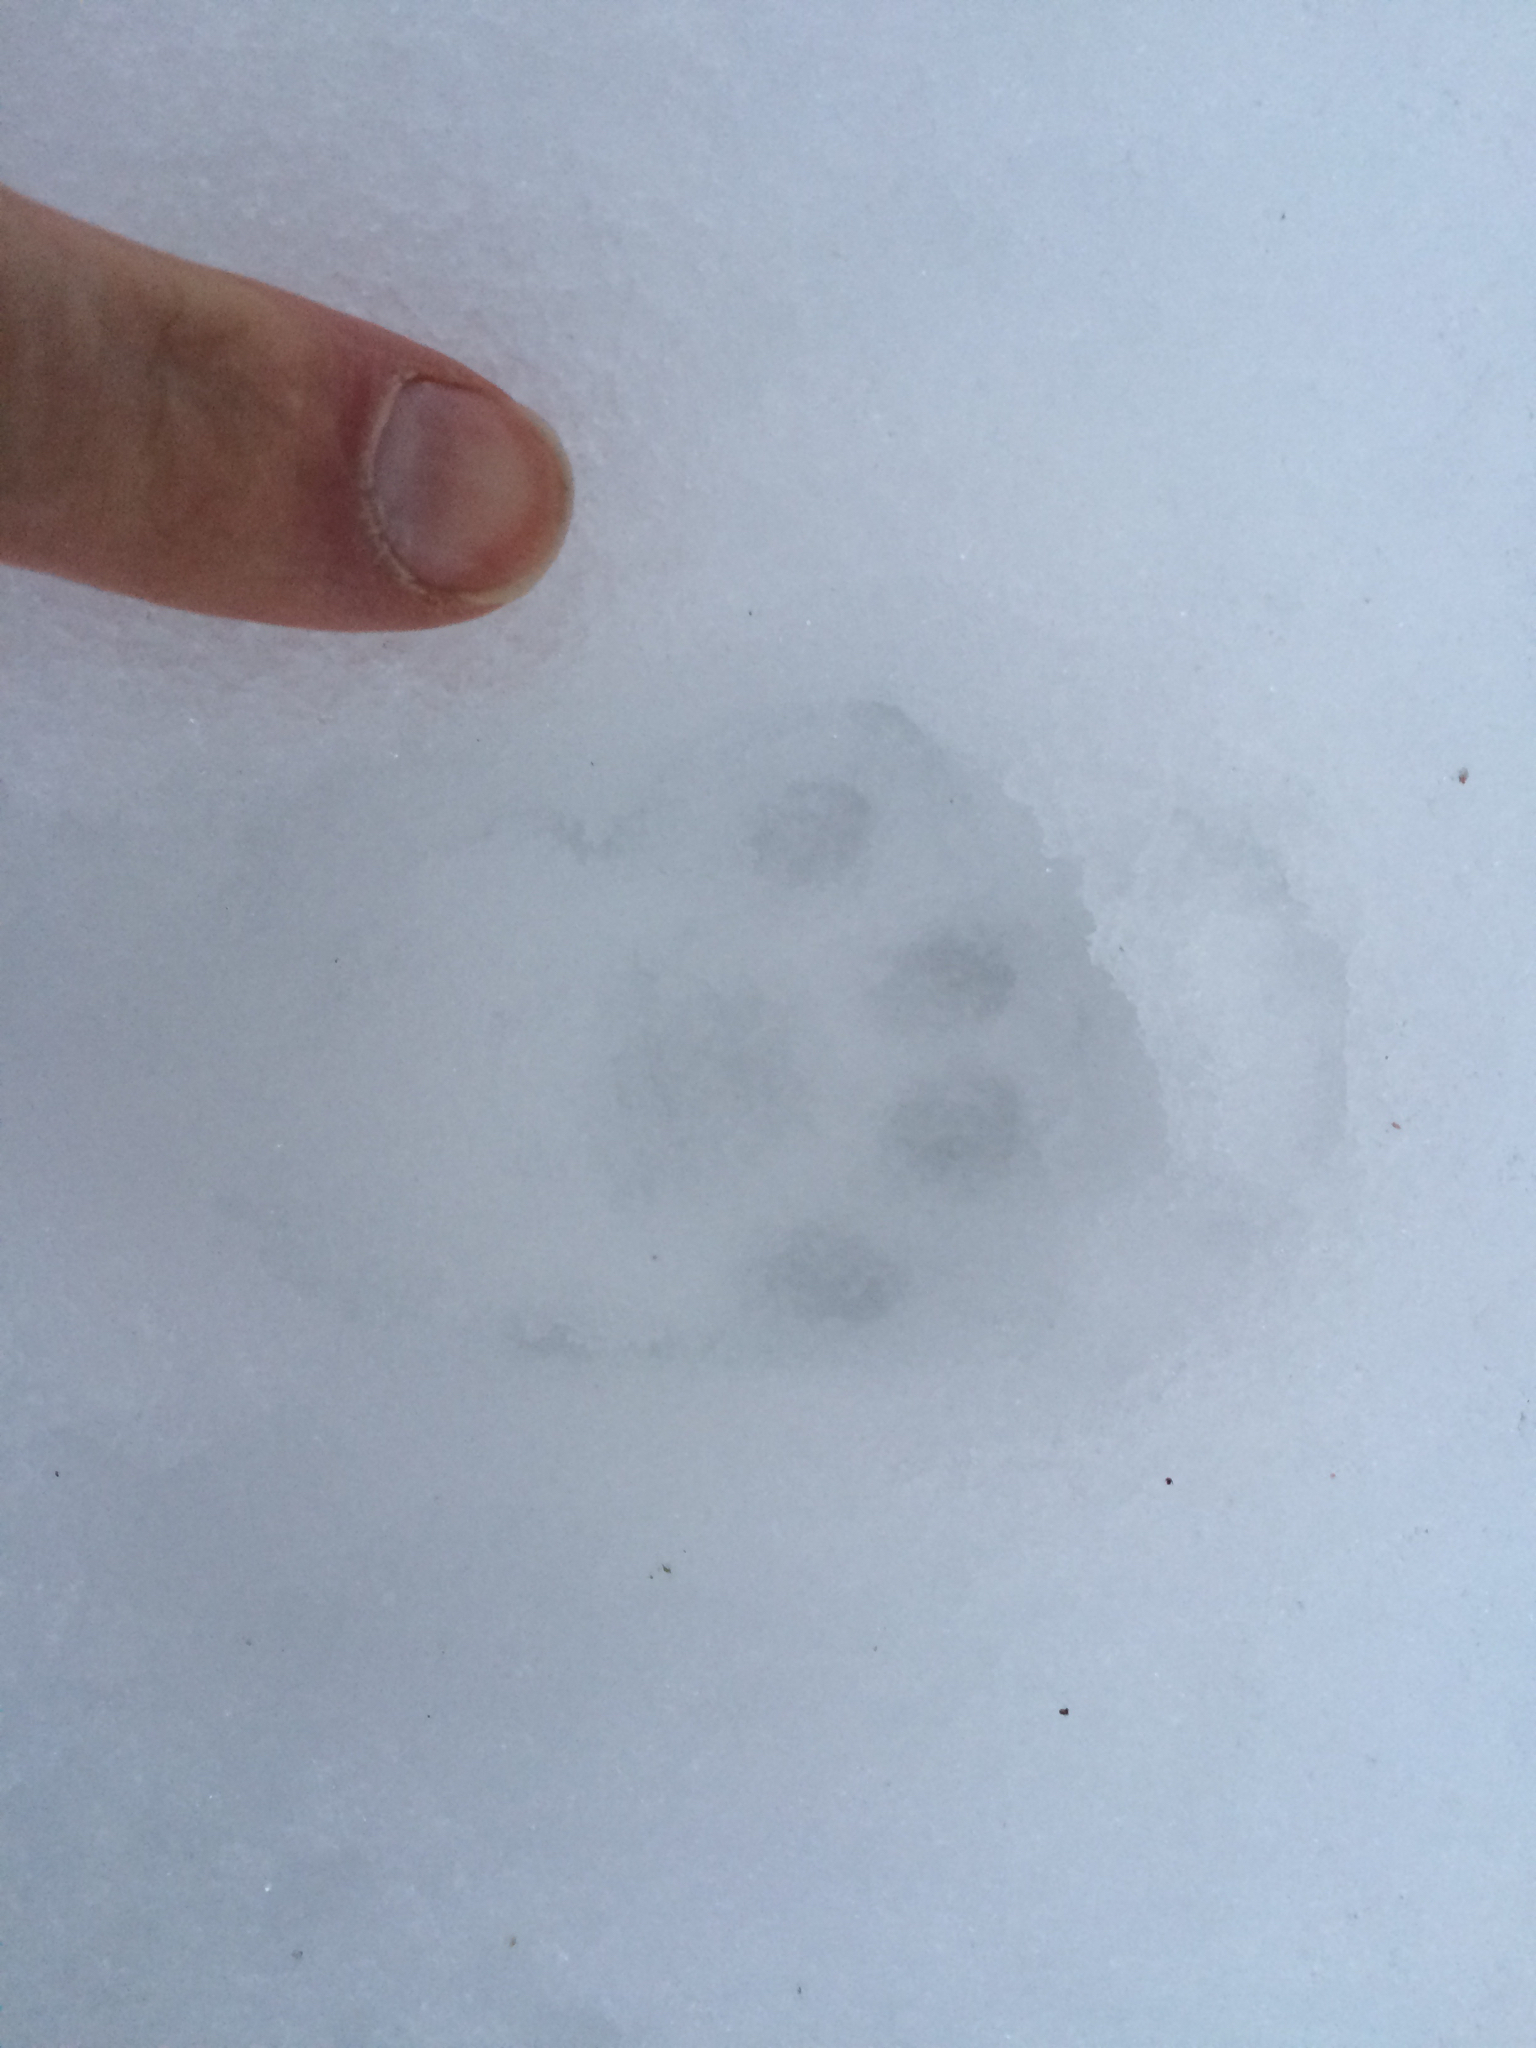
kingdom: Animalia
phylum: Chordata
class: Mammalia
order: Carnivora
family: Felidae
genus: Felis
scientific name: Felis catus
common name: Domestic cat
